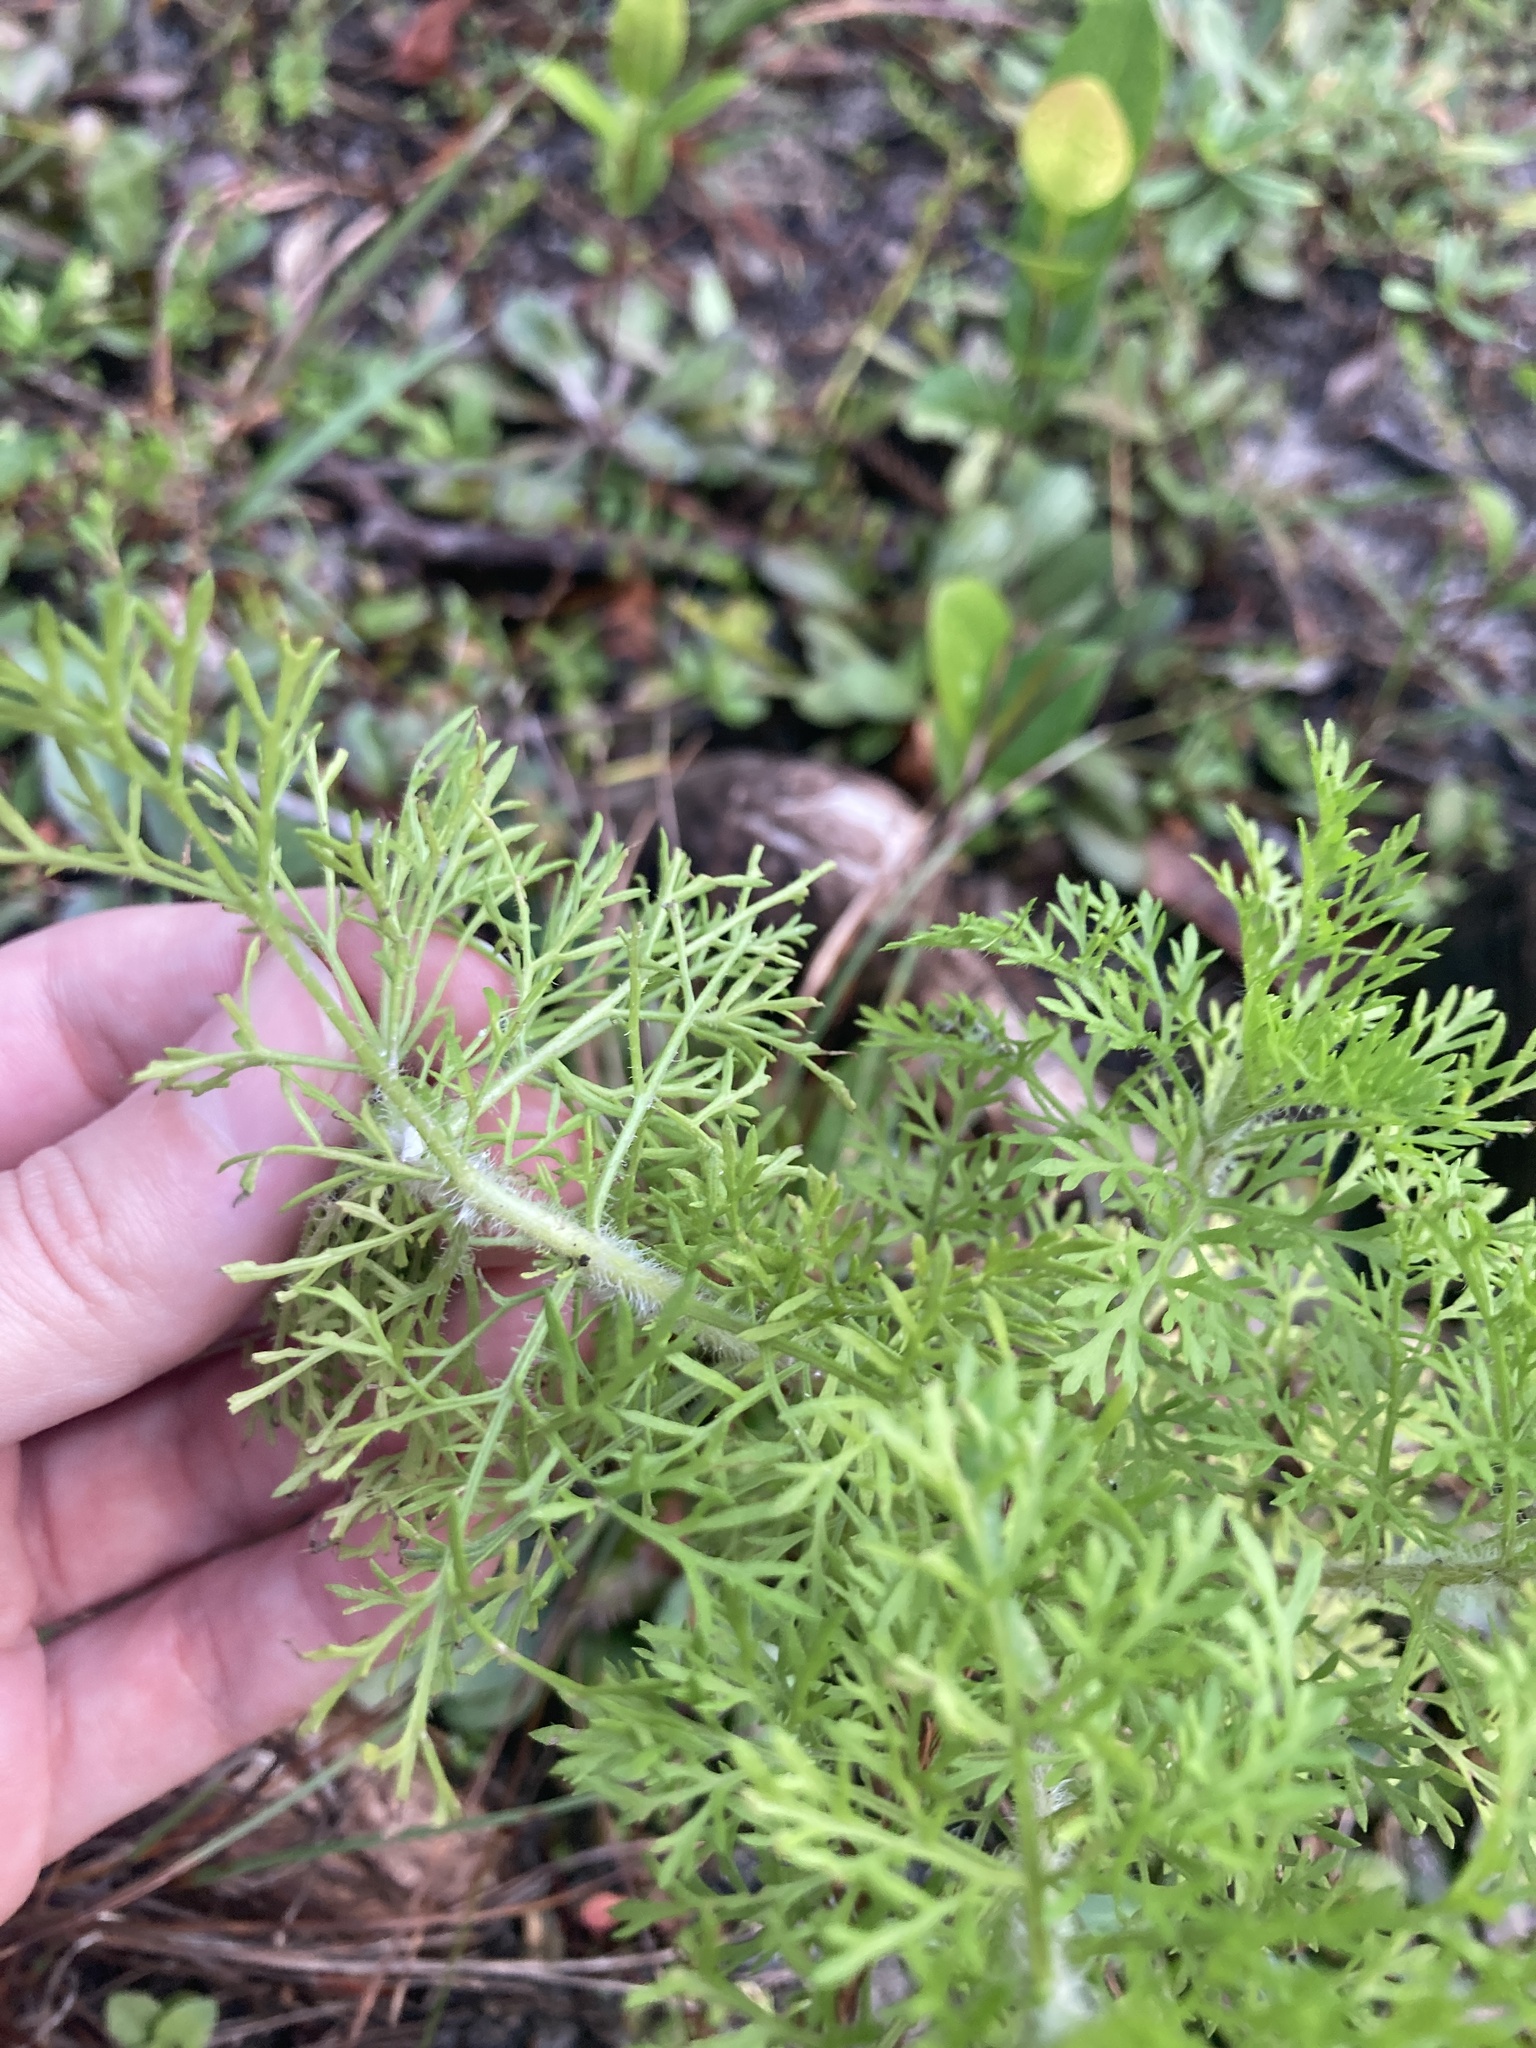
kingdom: Plantae
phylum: Tracheophyta
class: Magnoliopsida
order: Asterales
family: Asteraceae
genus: Eupatorium
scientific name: Eupatorium capillifolium
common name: Dog-fennel
